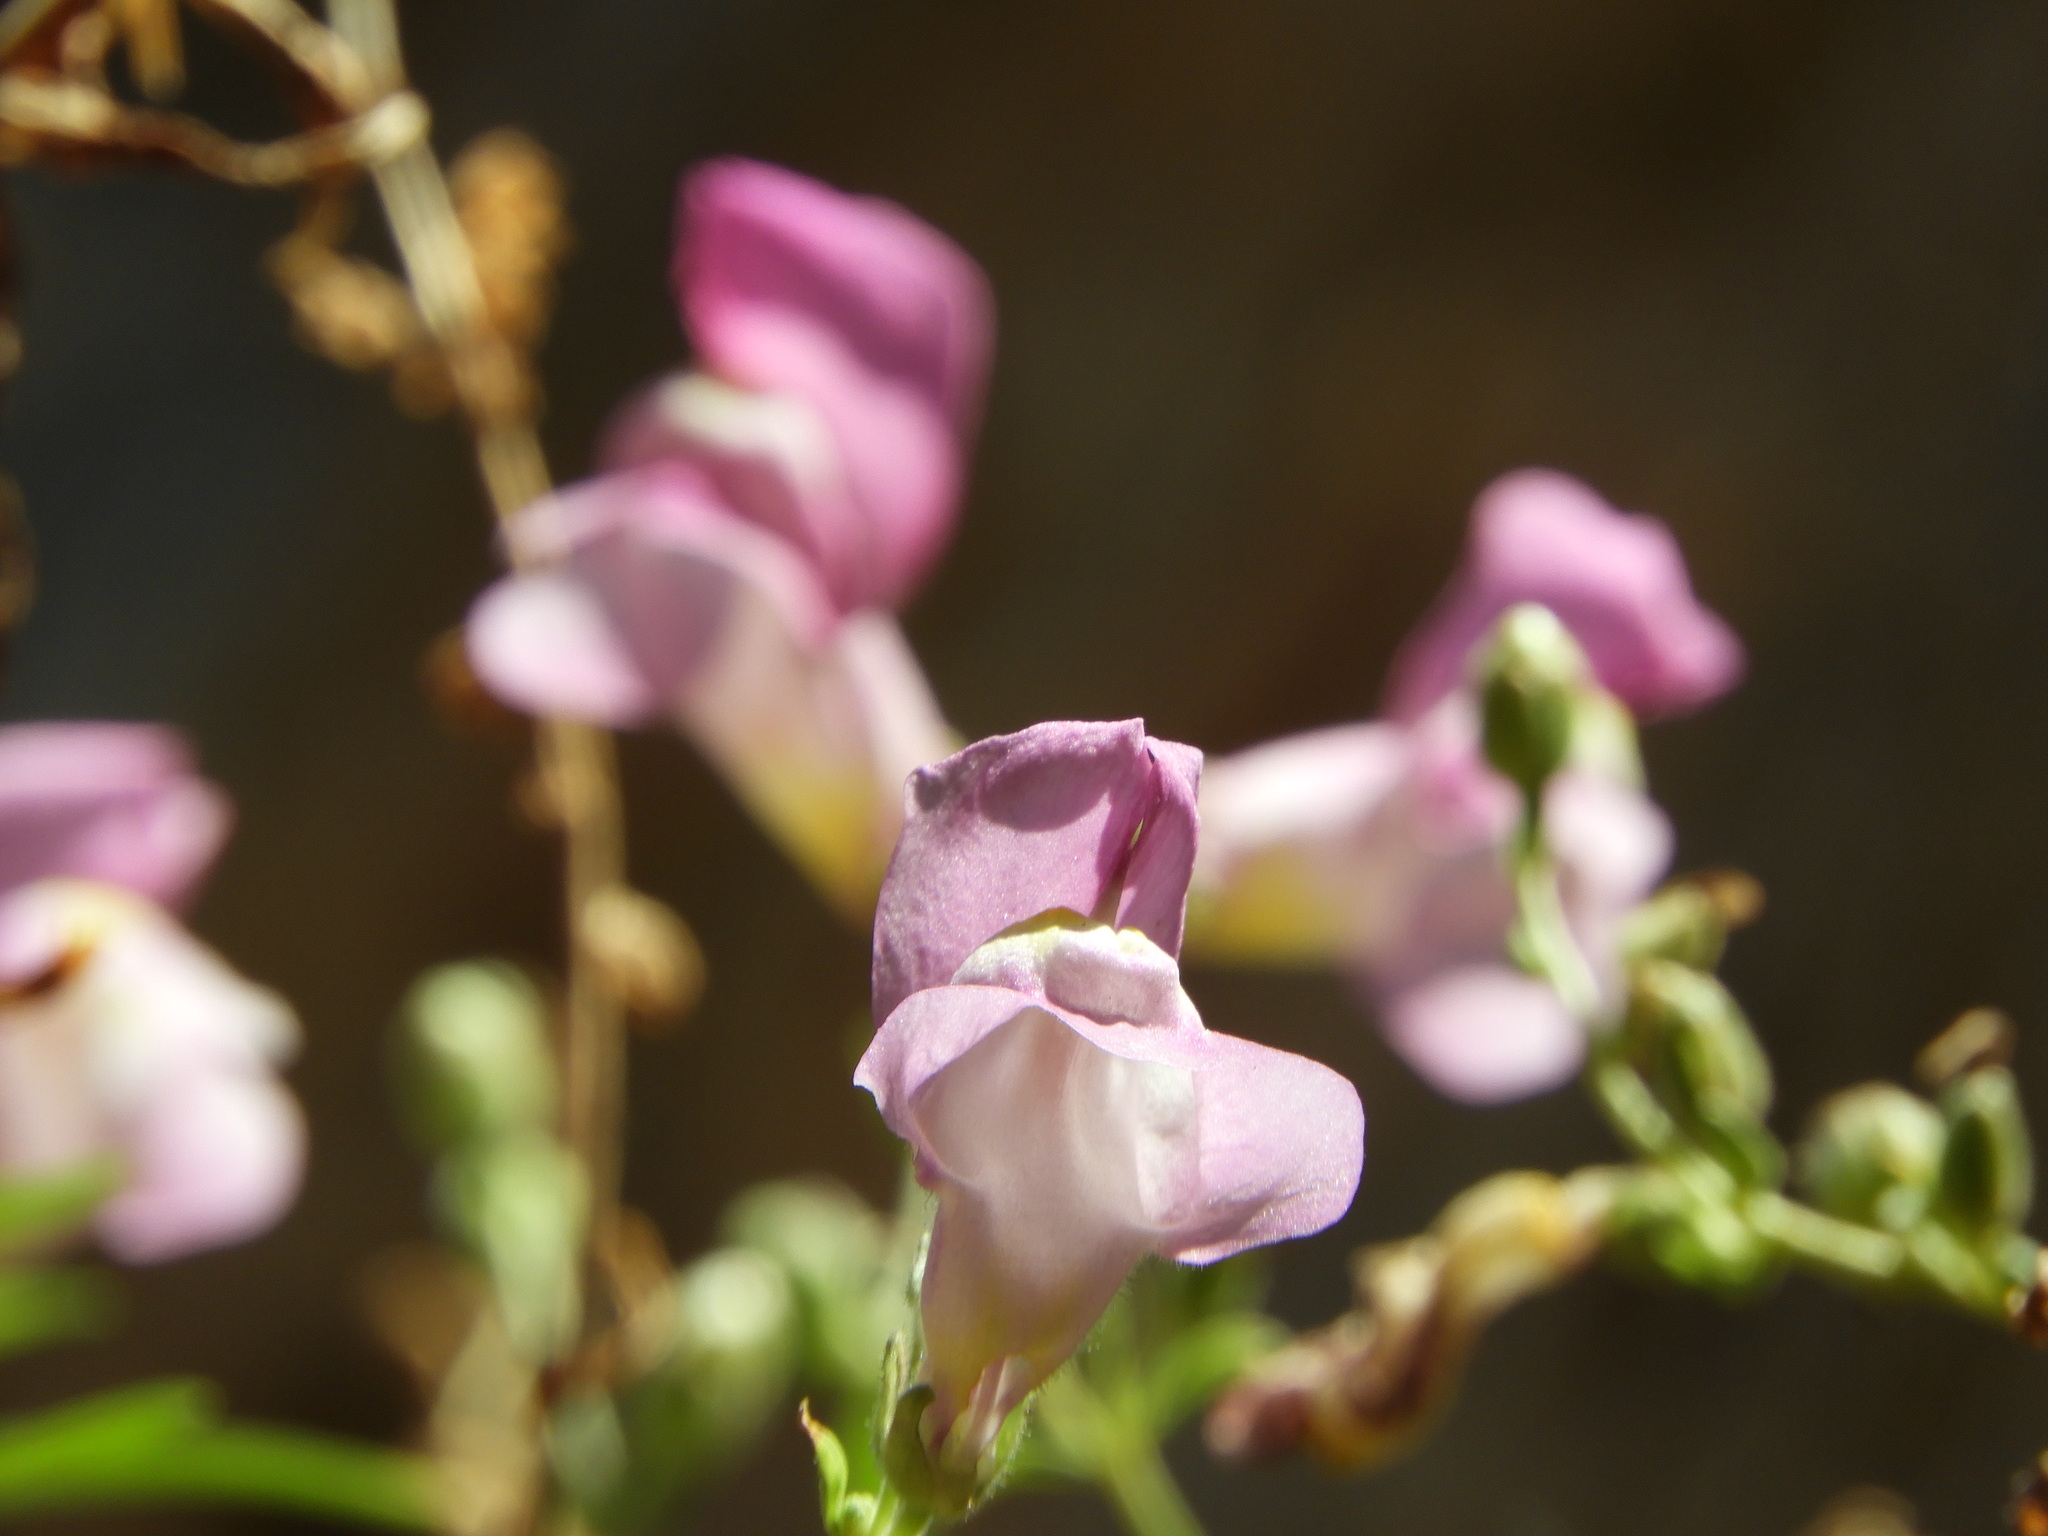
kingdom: Plantae
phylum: Tracheophyta
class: Magnoliopsida
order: Lamiales
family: Plantaginaceae
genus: Antirrhinum
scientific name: Antirrhinum tortuosum
